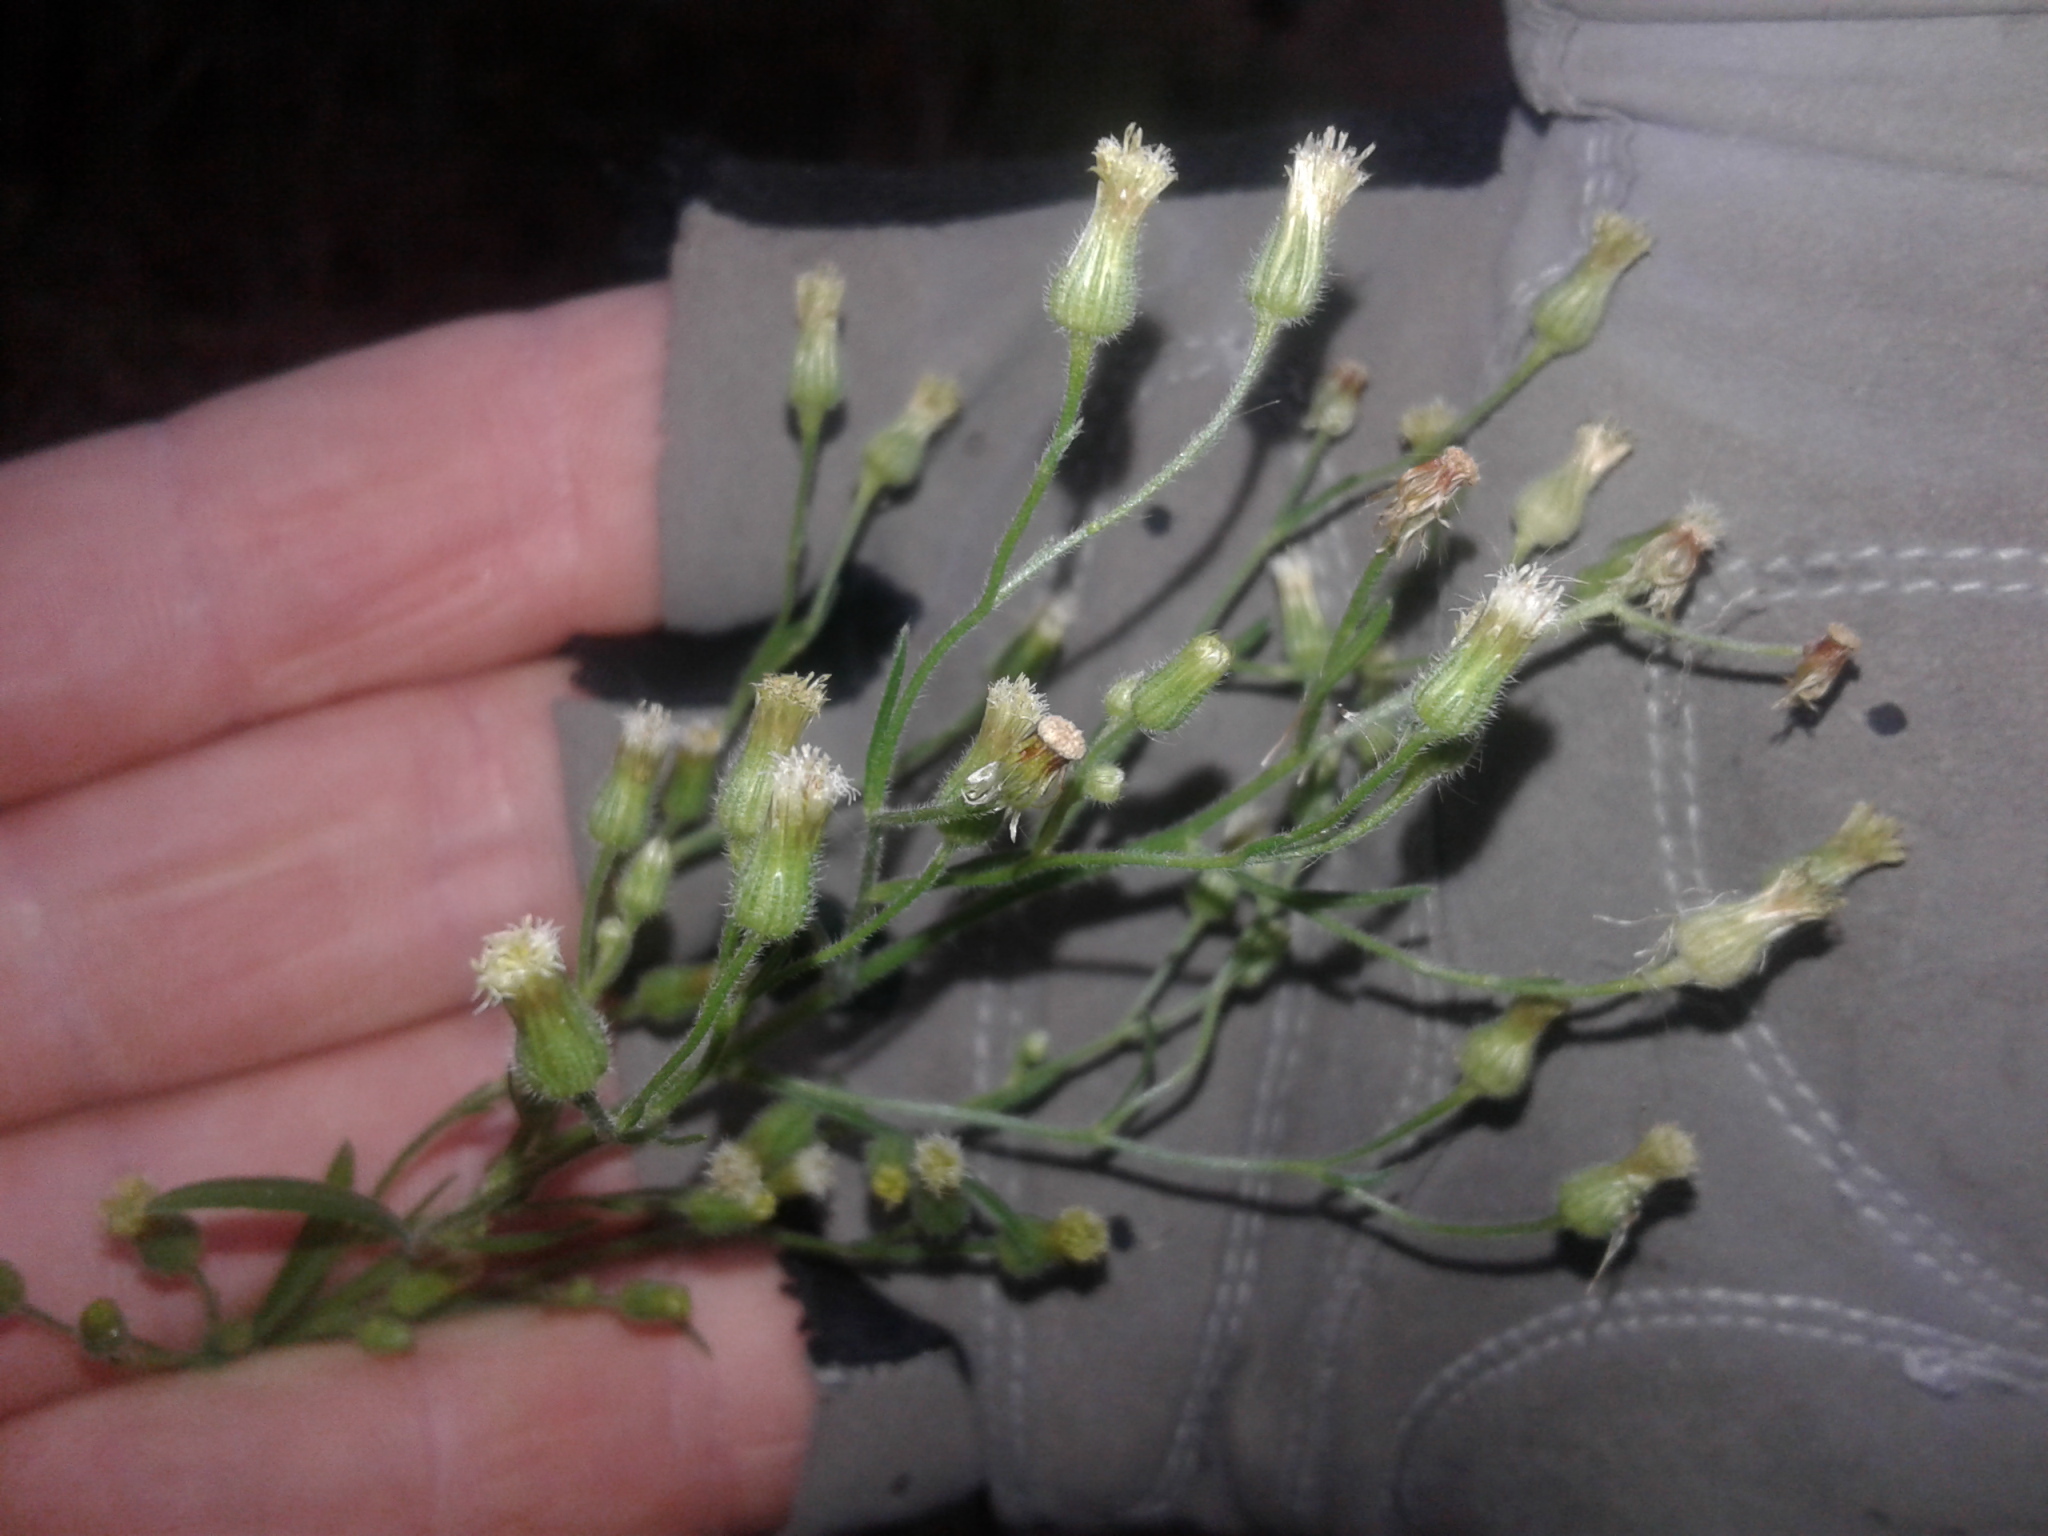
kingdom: Plantae
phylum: Tracheophyta
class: Magnoliopsida
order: Asterales
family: Asteraceae
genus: Erigeron
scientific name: Erigeron sumatrensis
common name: Daisy
